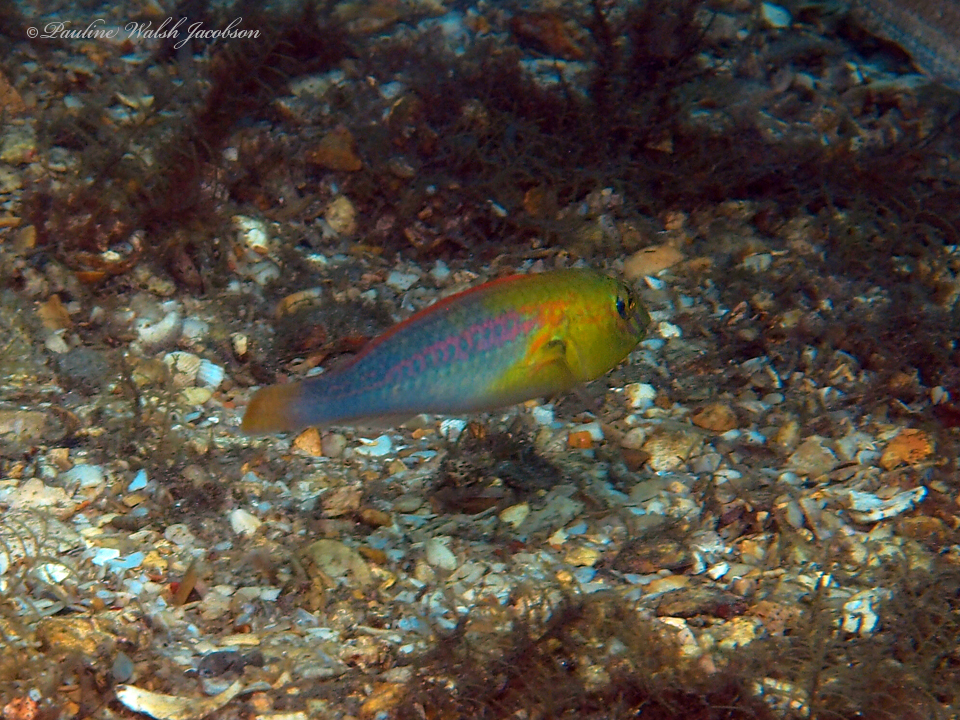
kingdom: Animalia
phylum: Chordata
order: Perciformes
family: Scaridae
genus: Cryptotomus
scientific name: Cryptotomus roseus
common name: Bluelip parrotfish
